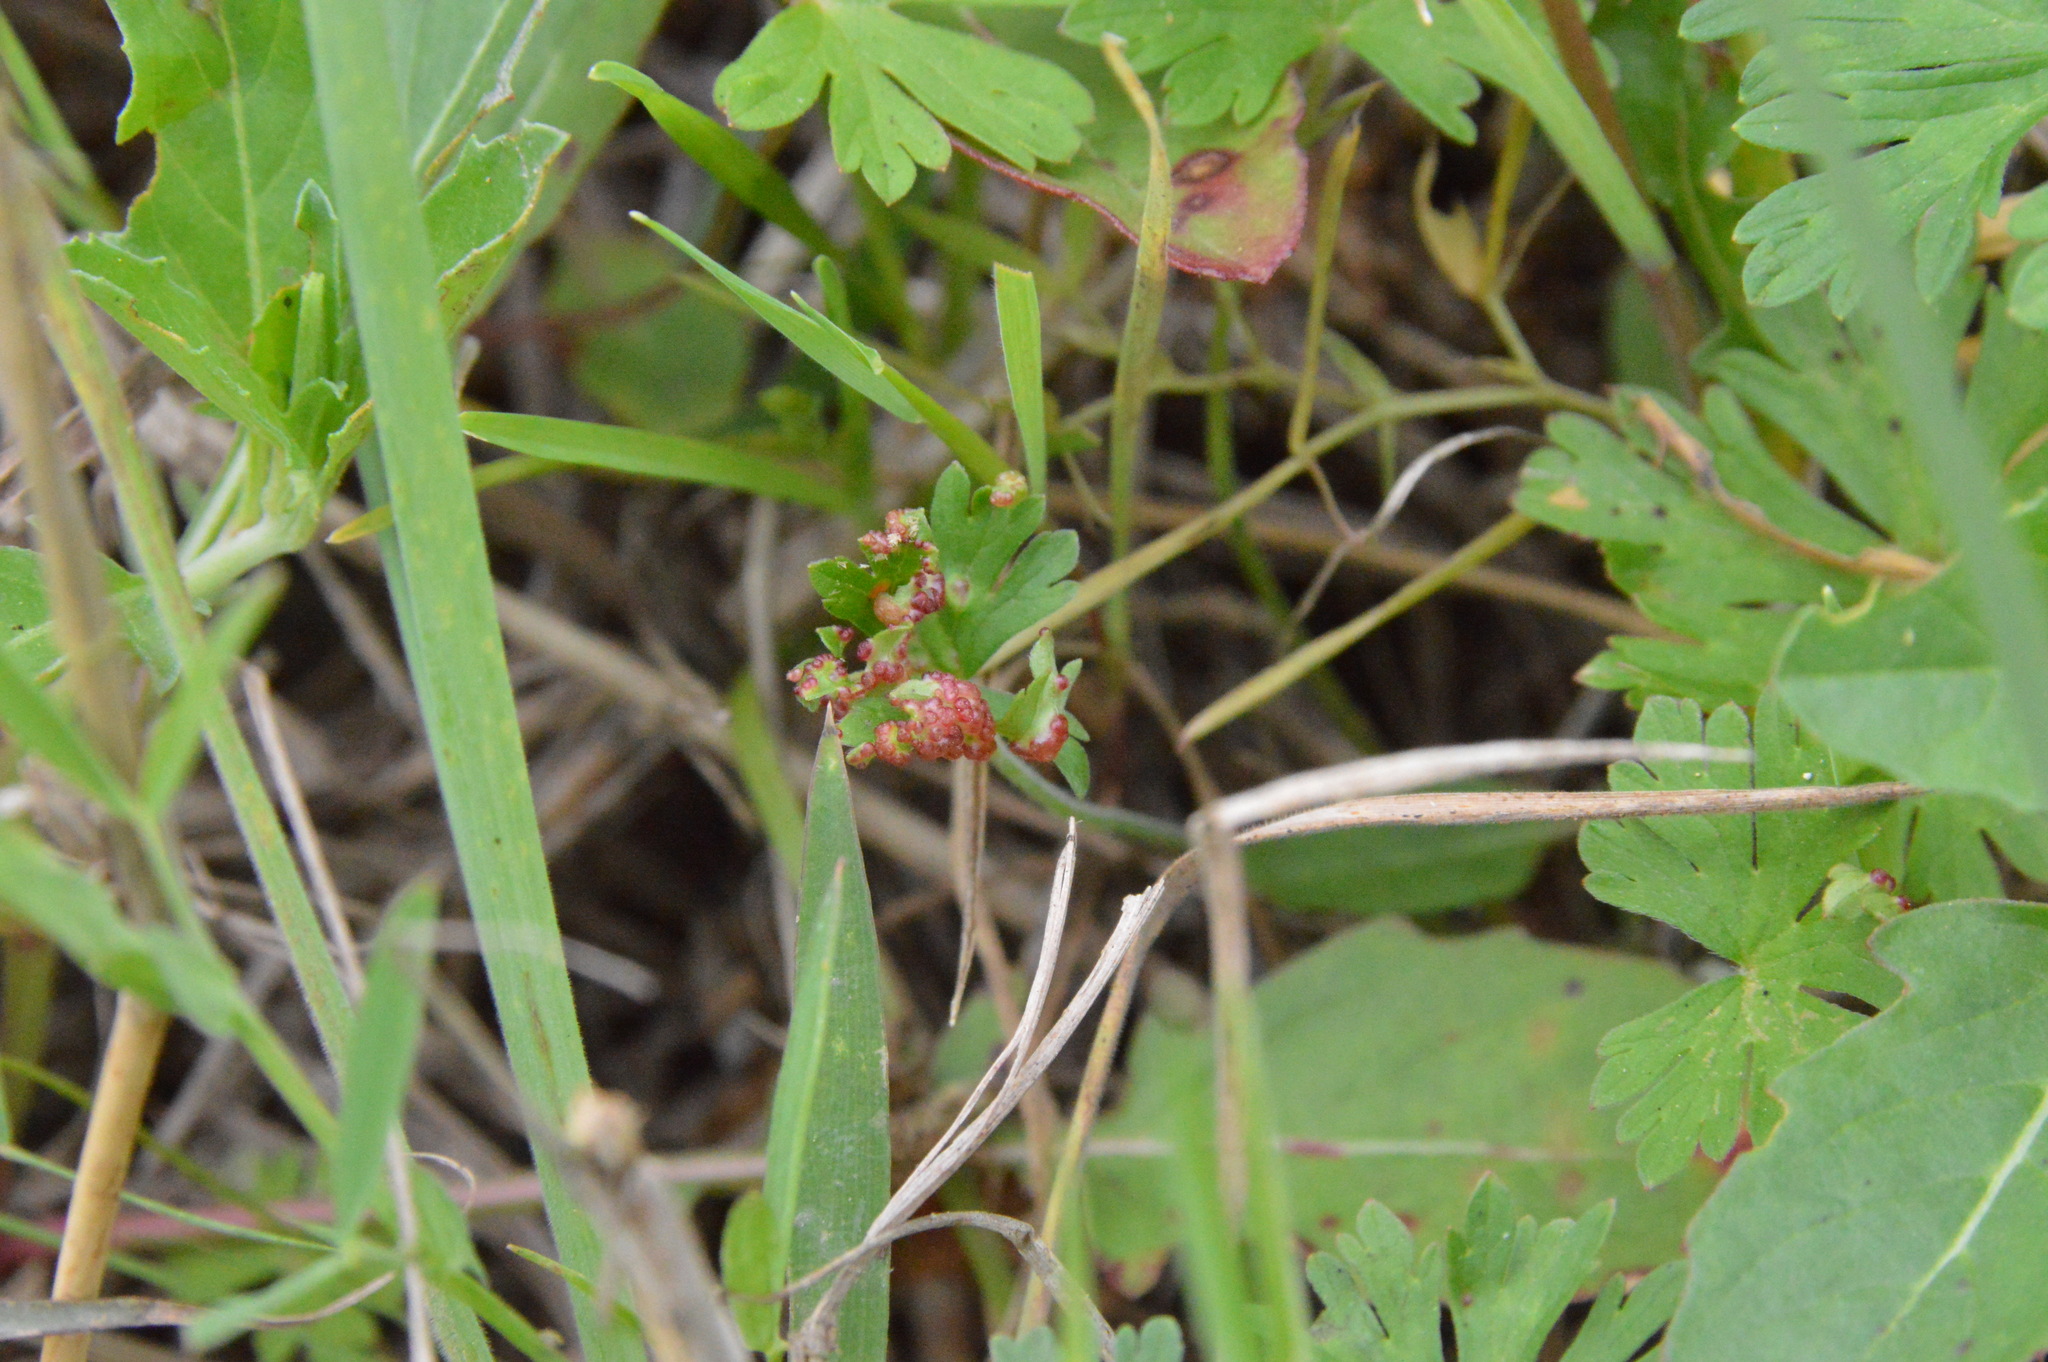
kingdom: Fungi
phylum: Chytridiomycota
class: Chytridiomycetes
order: Chytridiales
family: Synchytriaceae
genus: Synchytrium
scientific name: Synchytrium geranii
